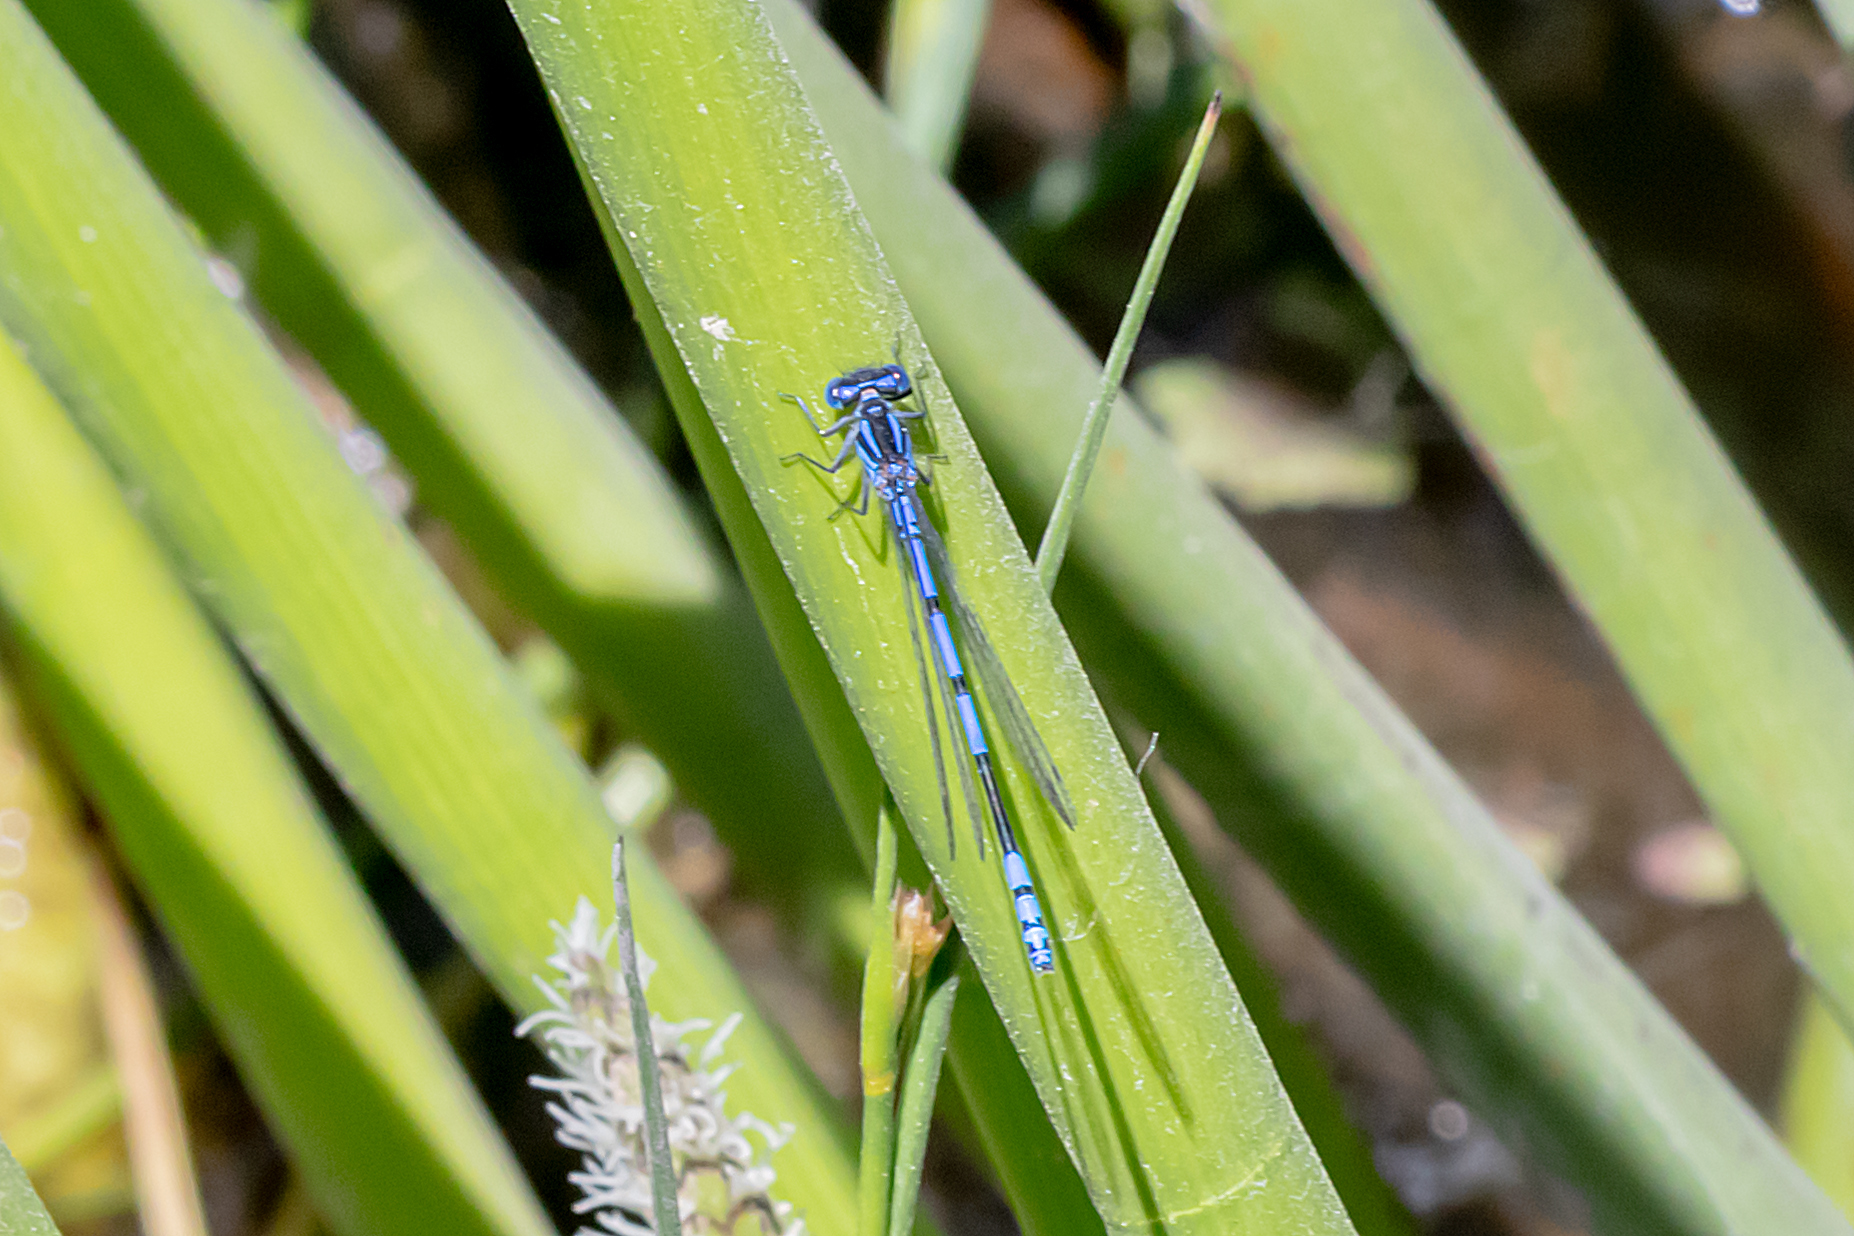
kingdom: Animalia
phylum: Arthropoda
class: Insecta
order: Odonata
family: Coenagrionidae
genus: Austrocoenagrion
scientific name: Austrocoenagrion lyelli
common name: Swamp bluet
